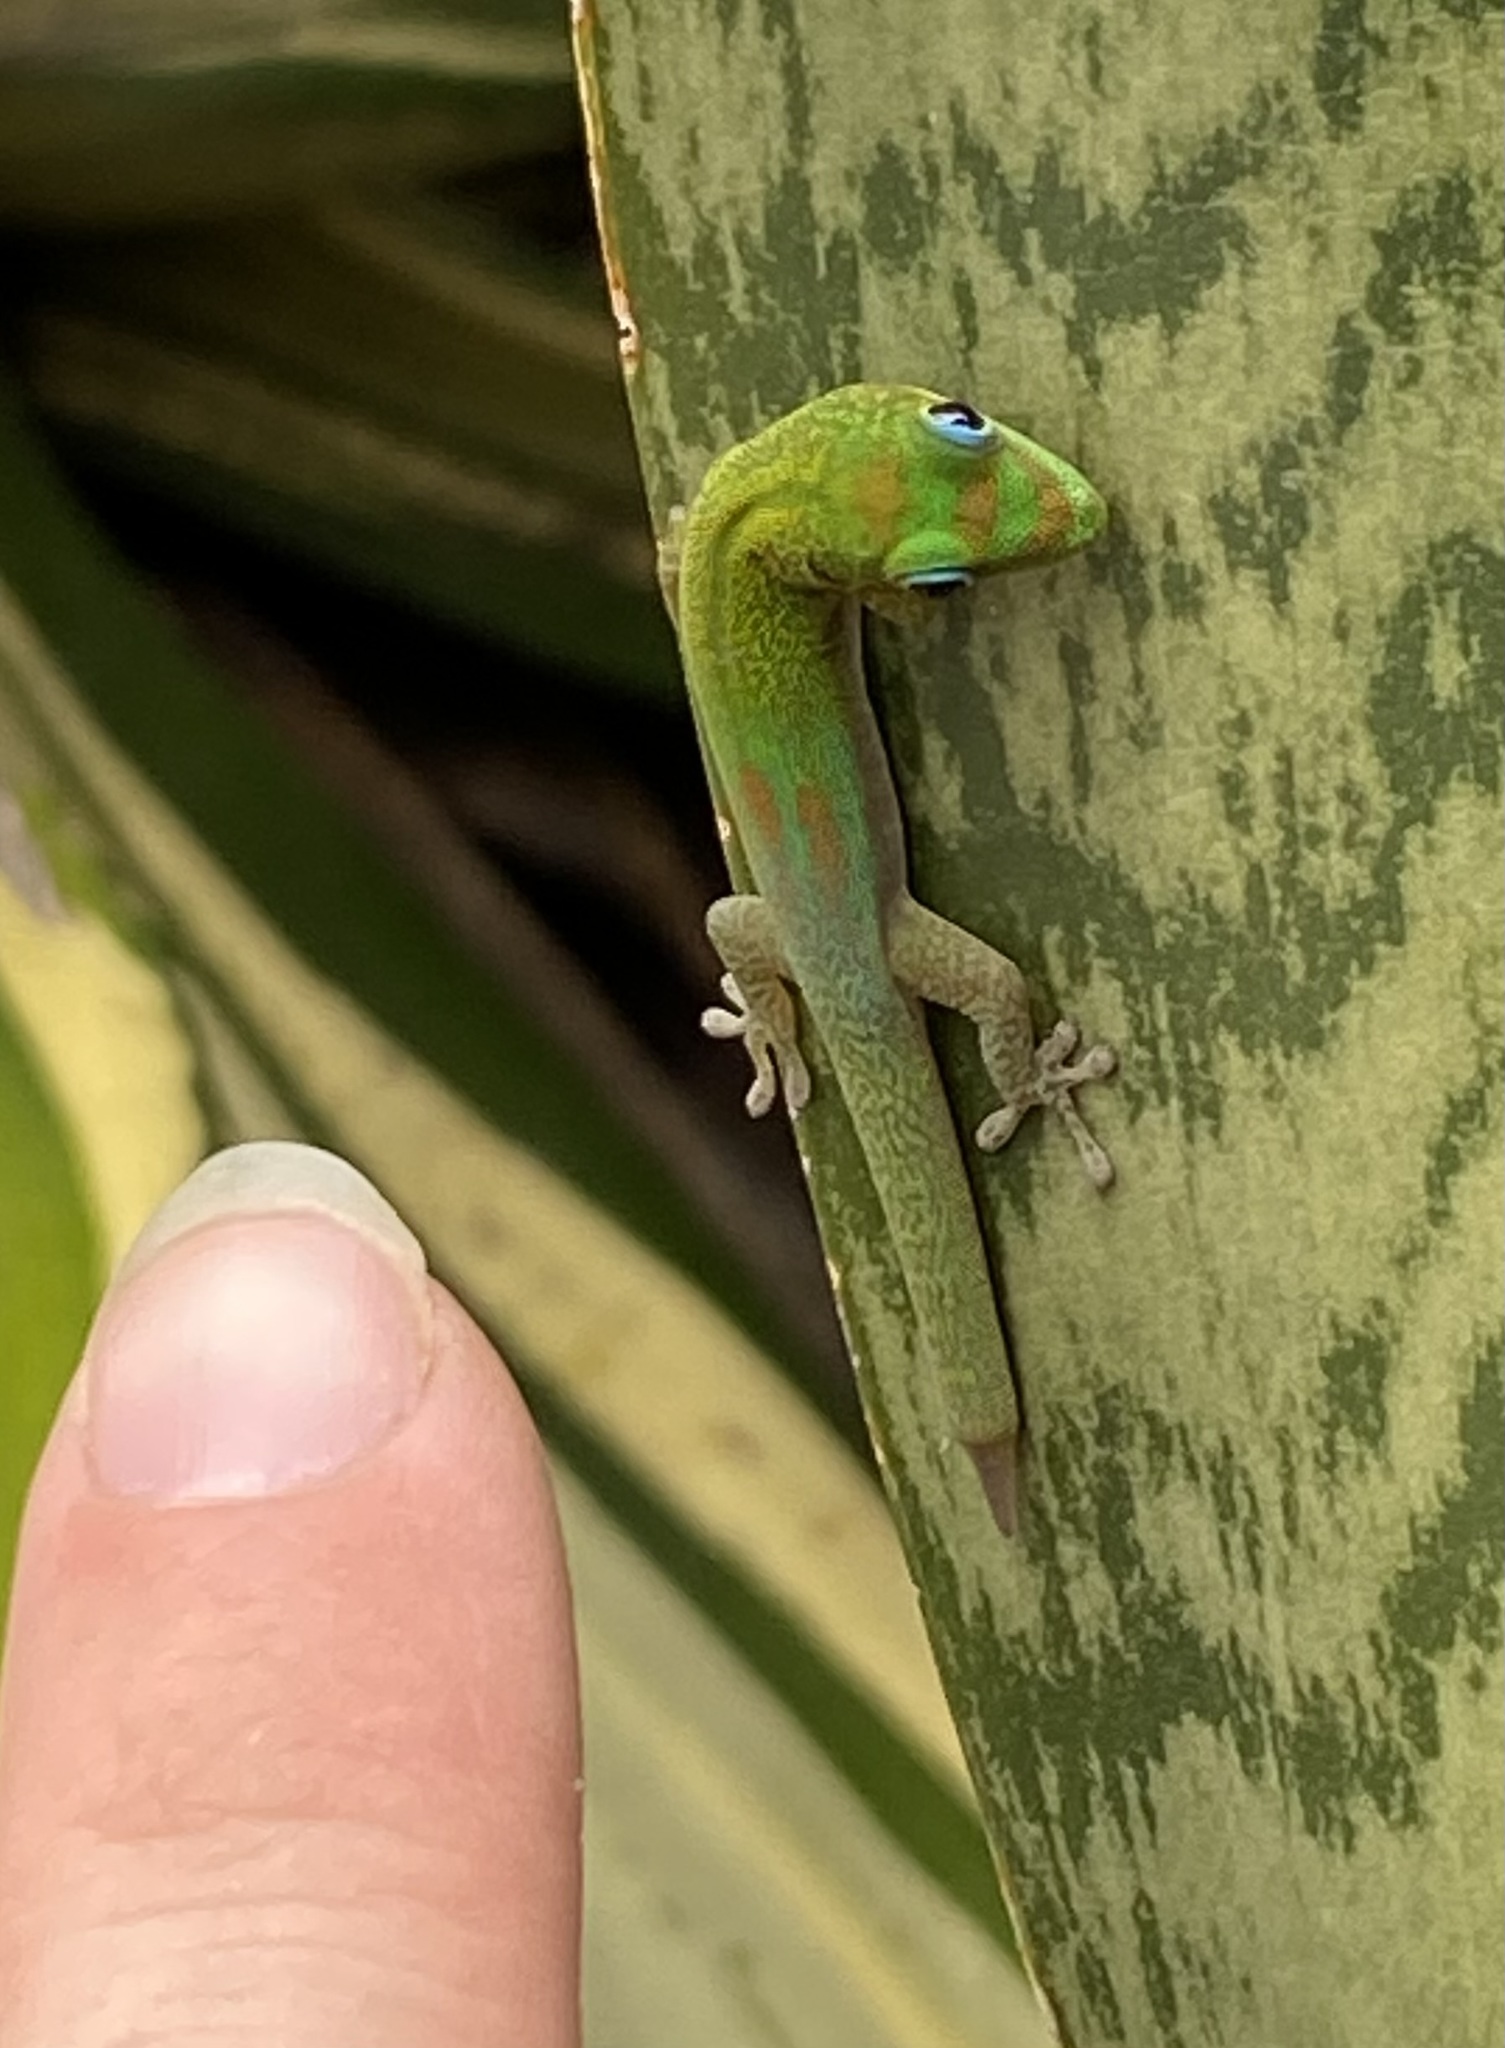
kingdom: Animalia
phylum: Chordata
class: Squamata
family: Gekkonidae
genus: Phelsuma
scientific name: Phelsuma laticauda
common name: Gold dust day gecko
